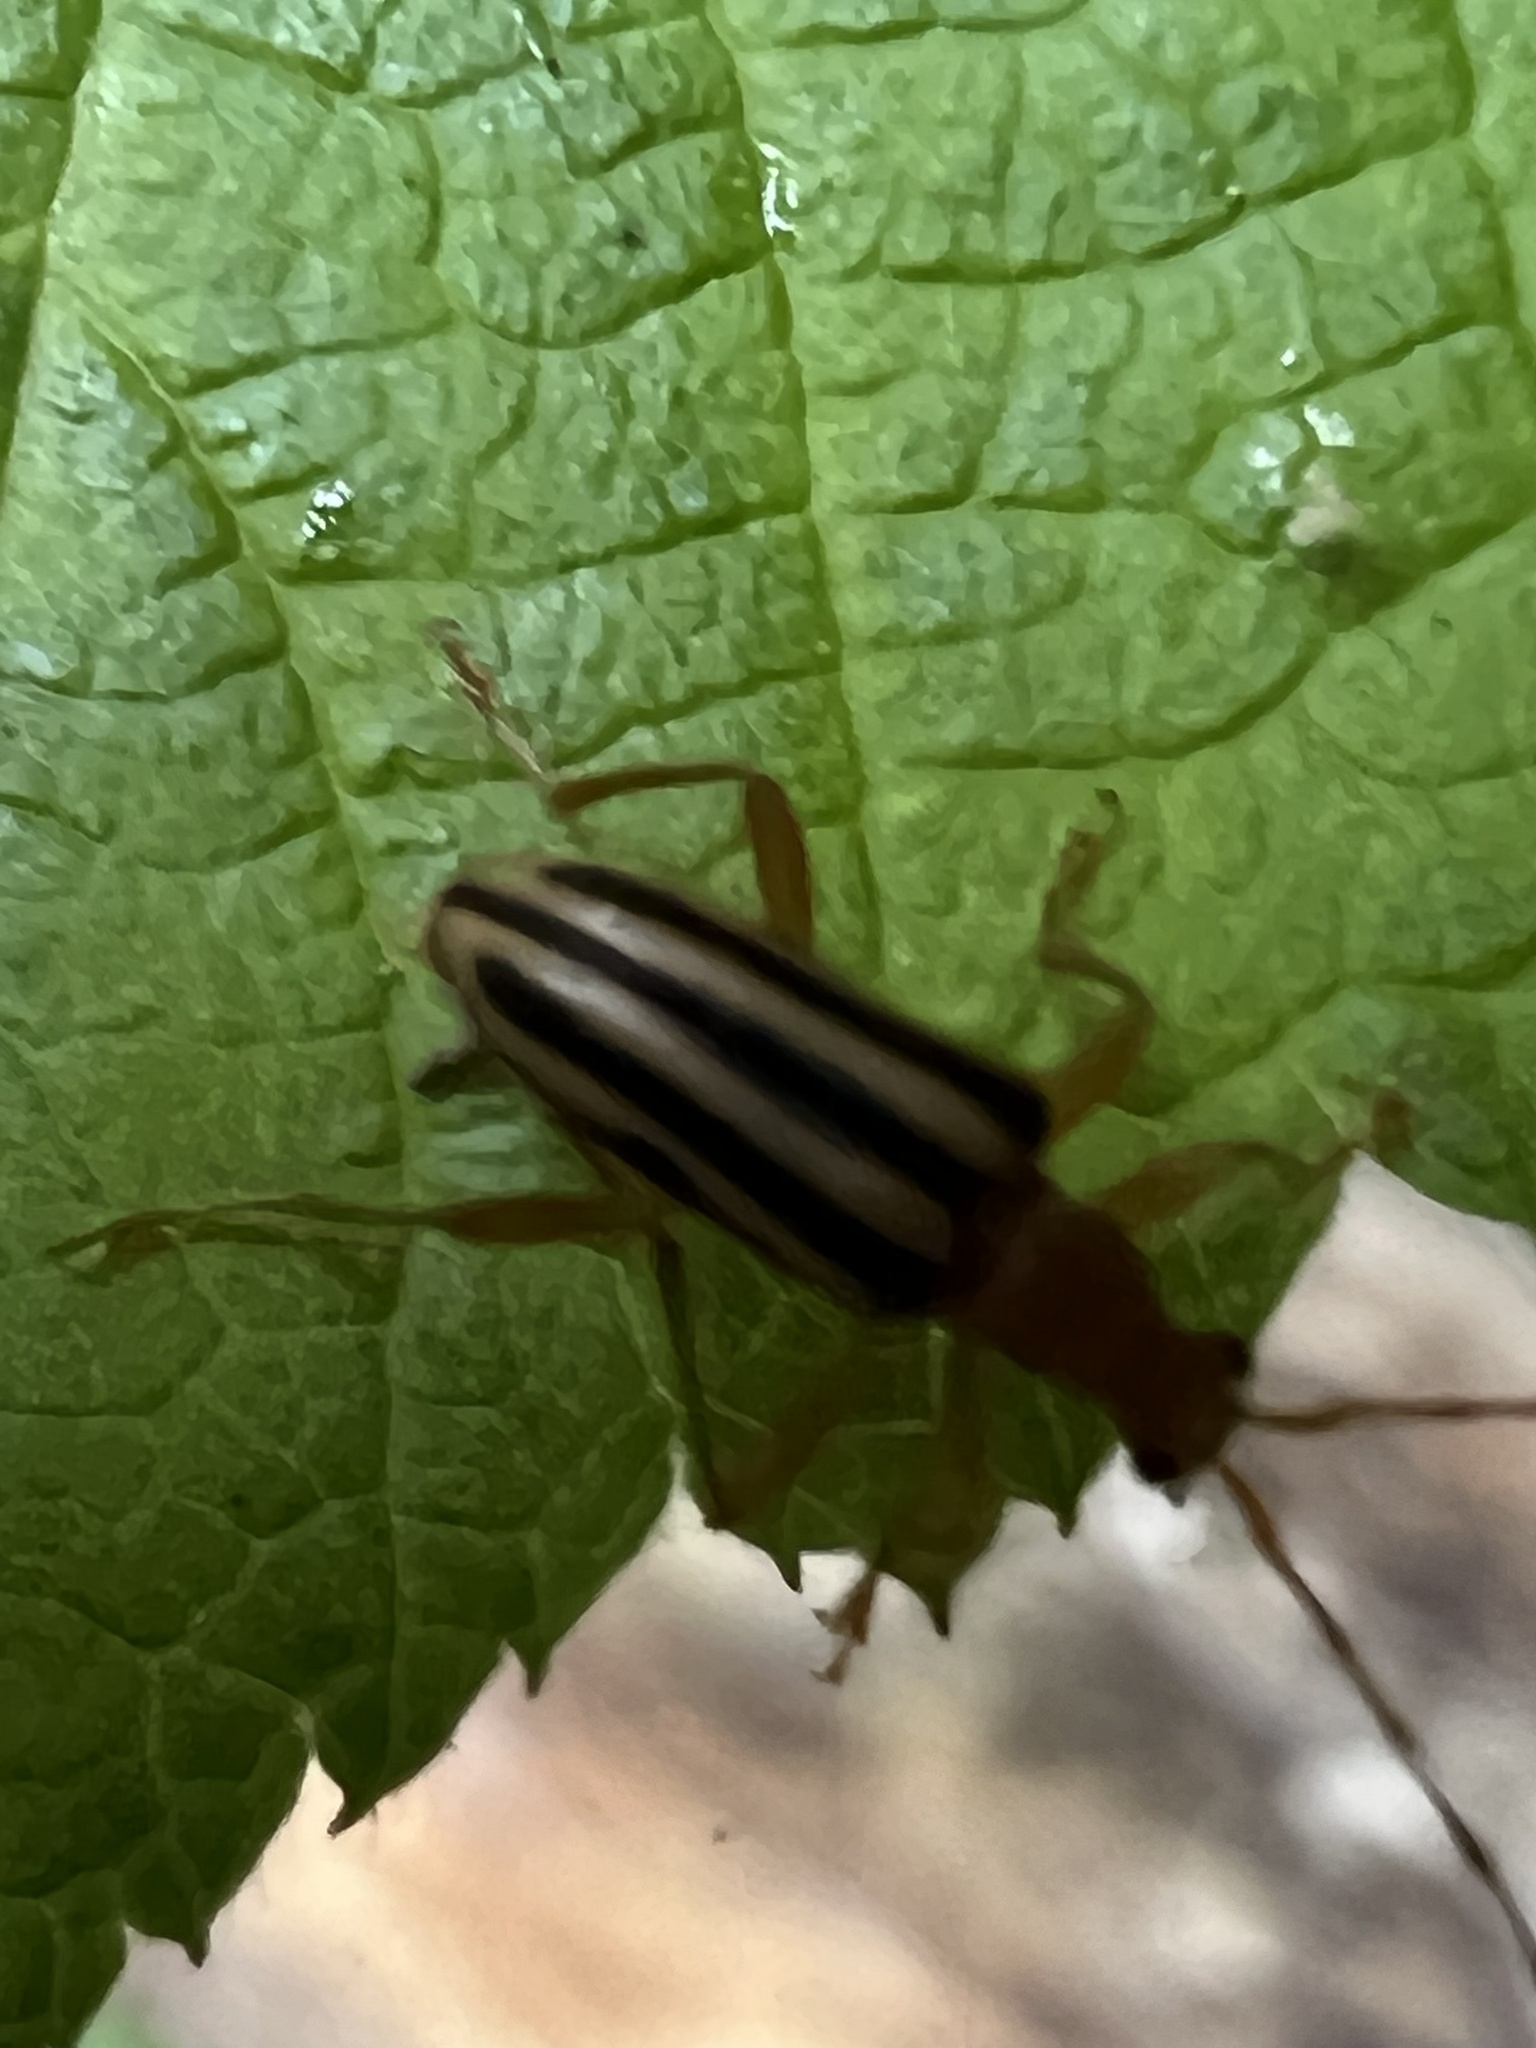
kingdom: Animalia
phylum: Arthropoda
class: Insecta
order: Coleoptera
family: Cerambycidae
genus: Metacmaeops
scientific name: Metacmaeops vittata
